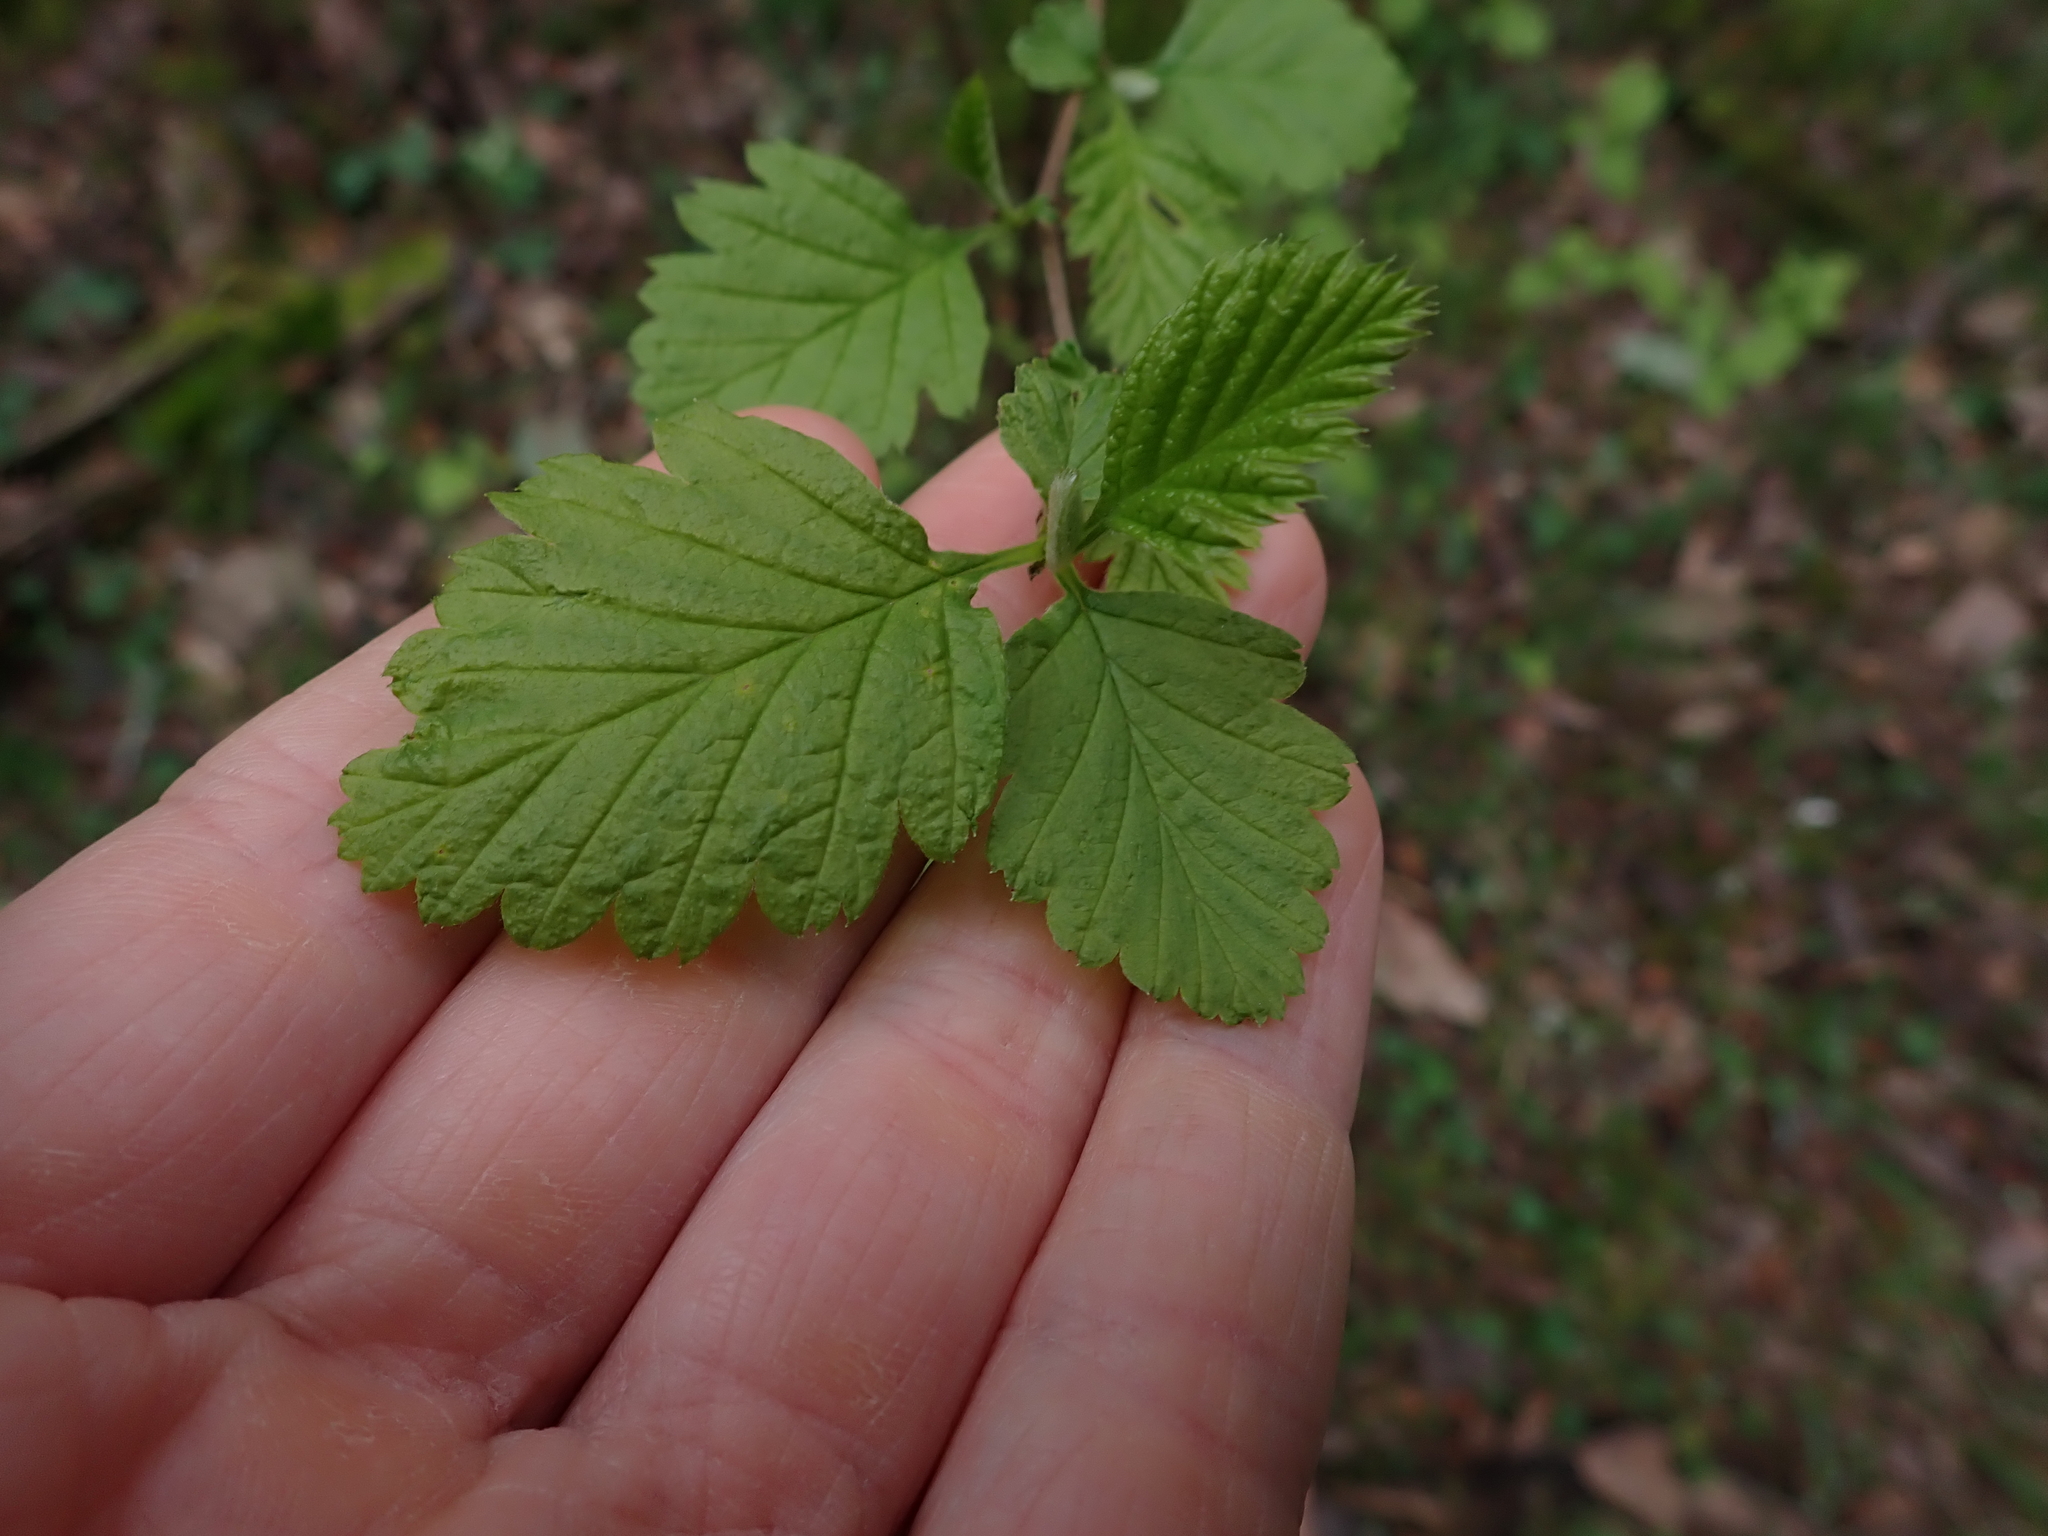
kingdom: Plantae
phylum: Tracheophyta
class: Magnoliopsida
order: Rosales
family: Rosaceae
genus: Holodiscus
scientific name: Holodiscus discolor
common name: Oceanspray
